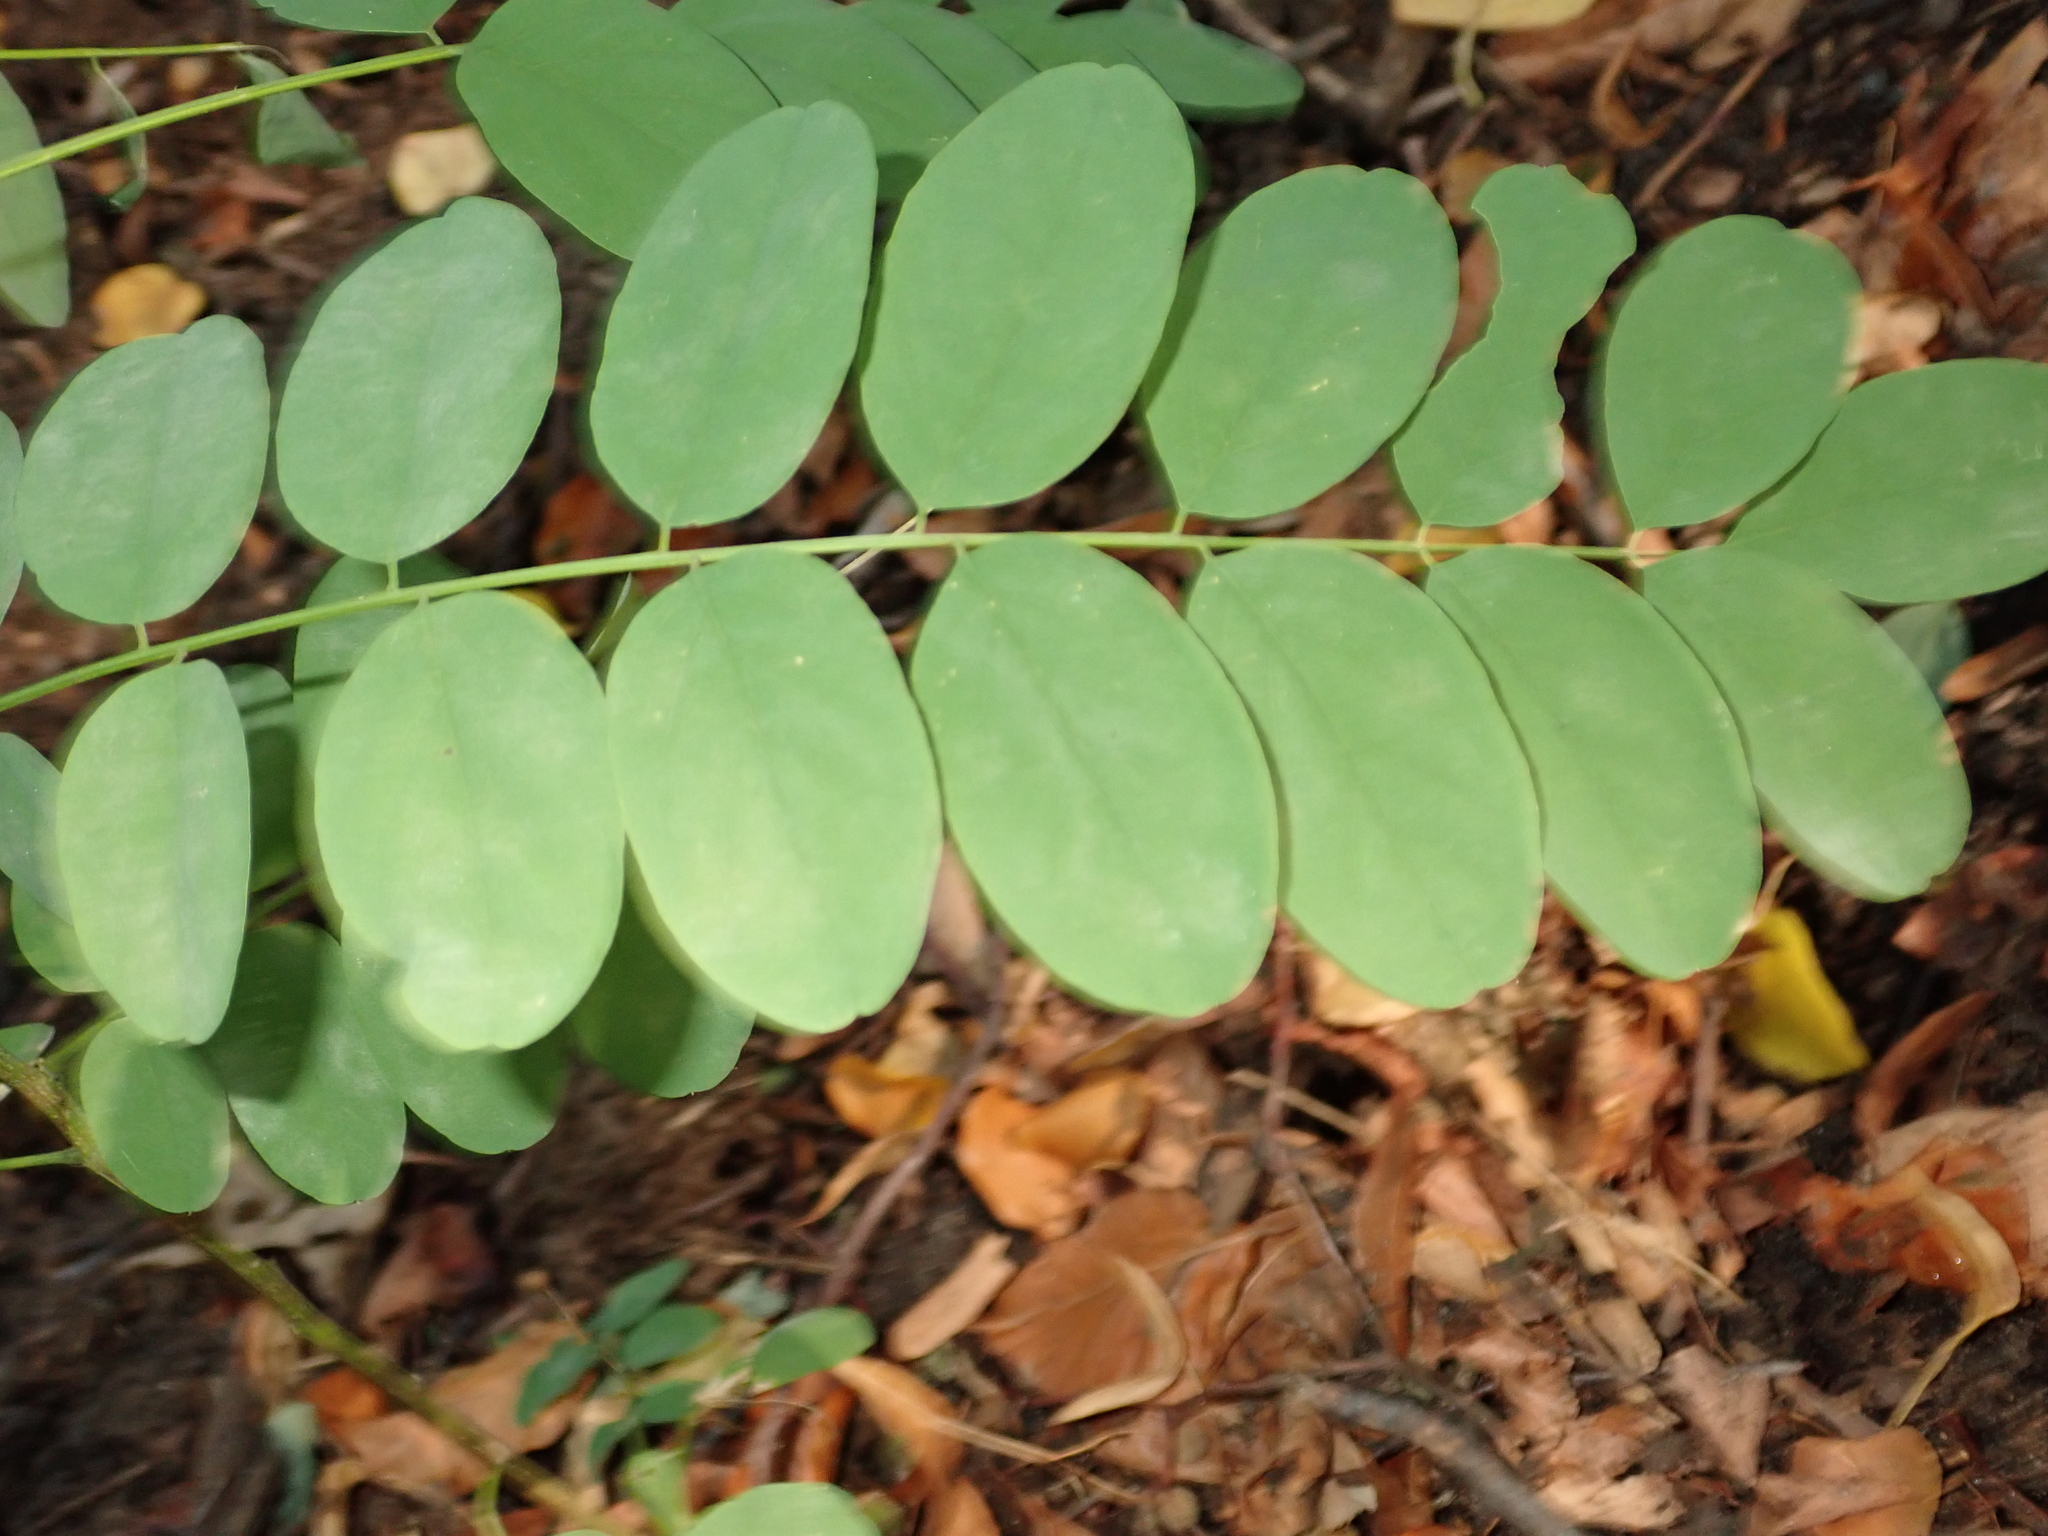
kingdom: Plantae
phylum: Tracheophyta
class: Magnoliopsida
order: Fabales
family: Fabaceae
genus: Robinia
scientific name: Robinia pseudoacacia
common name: Black locust
